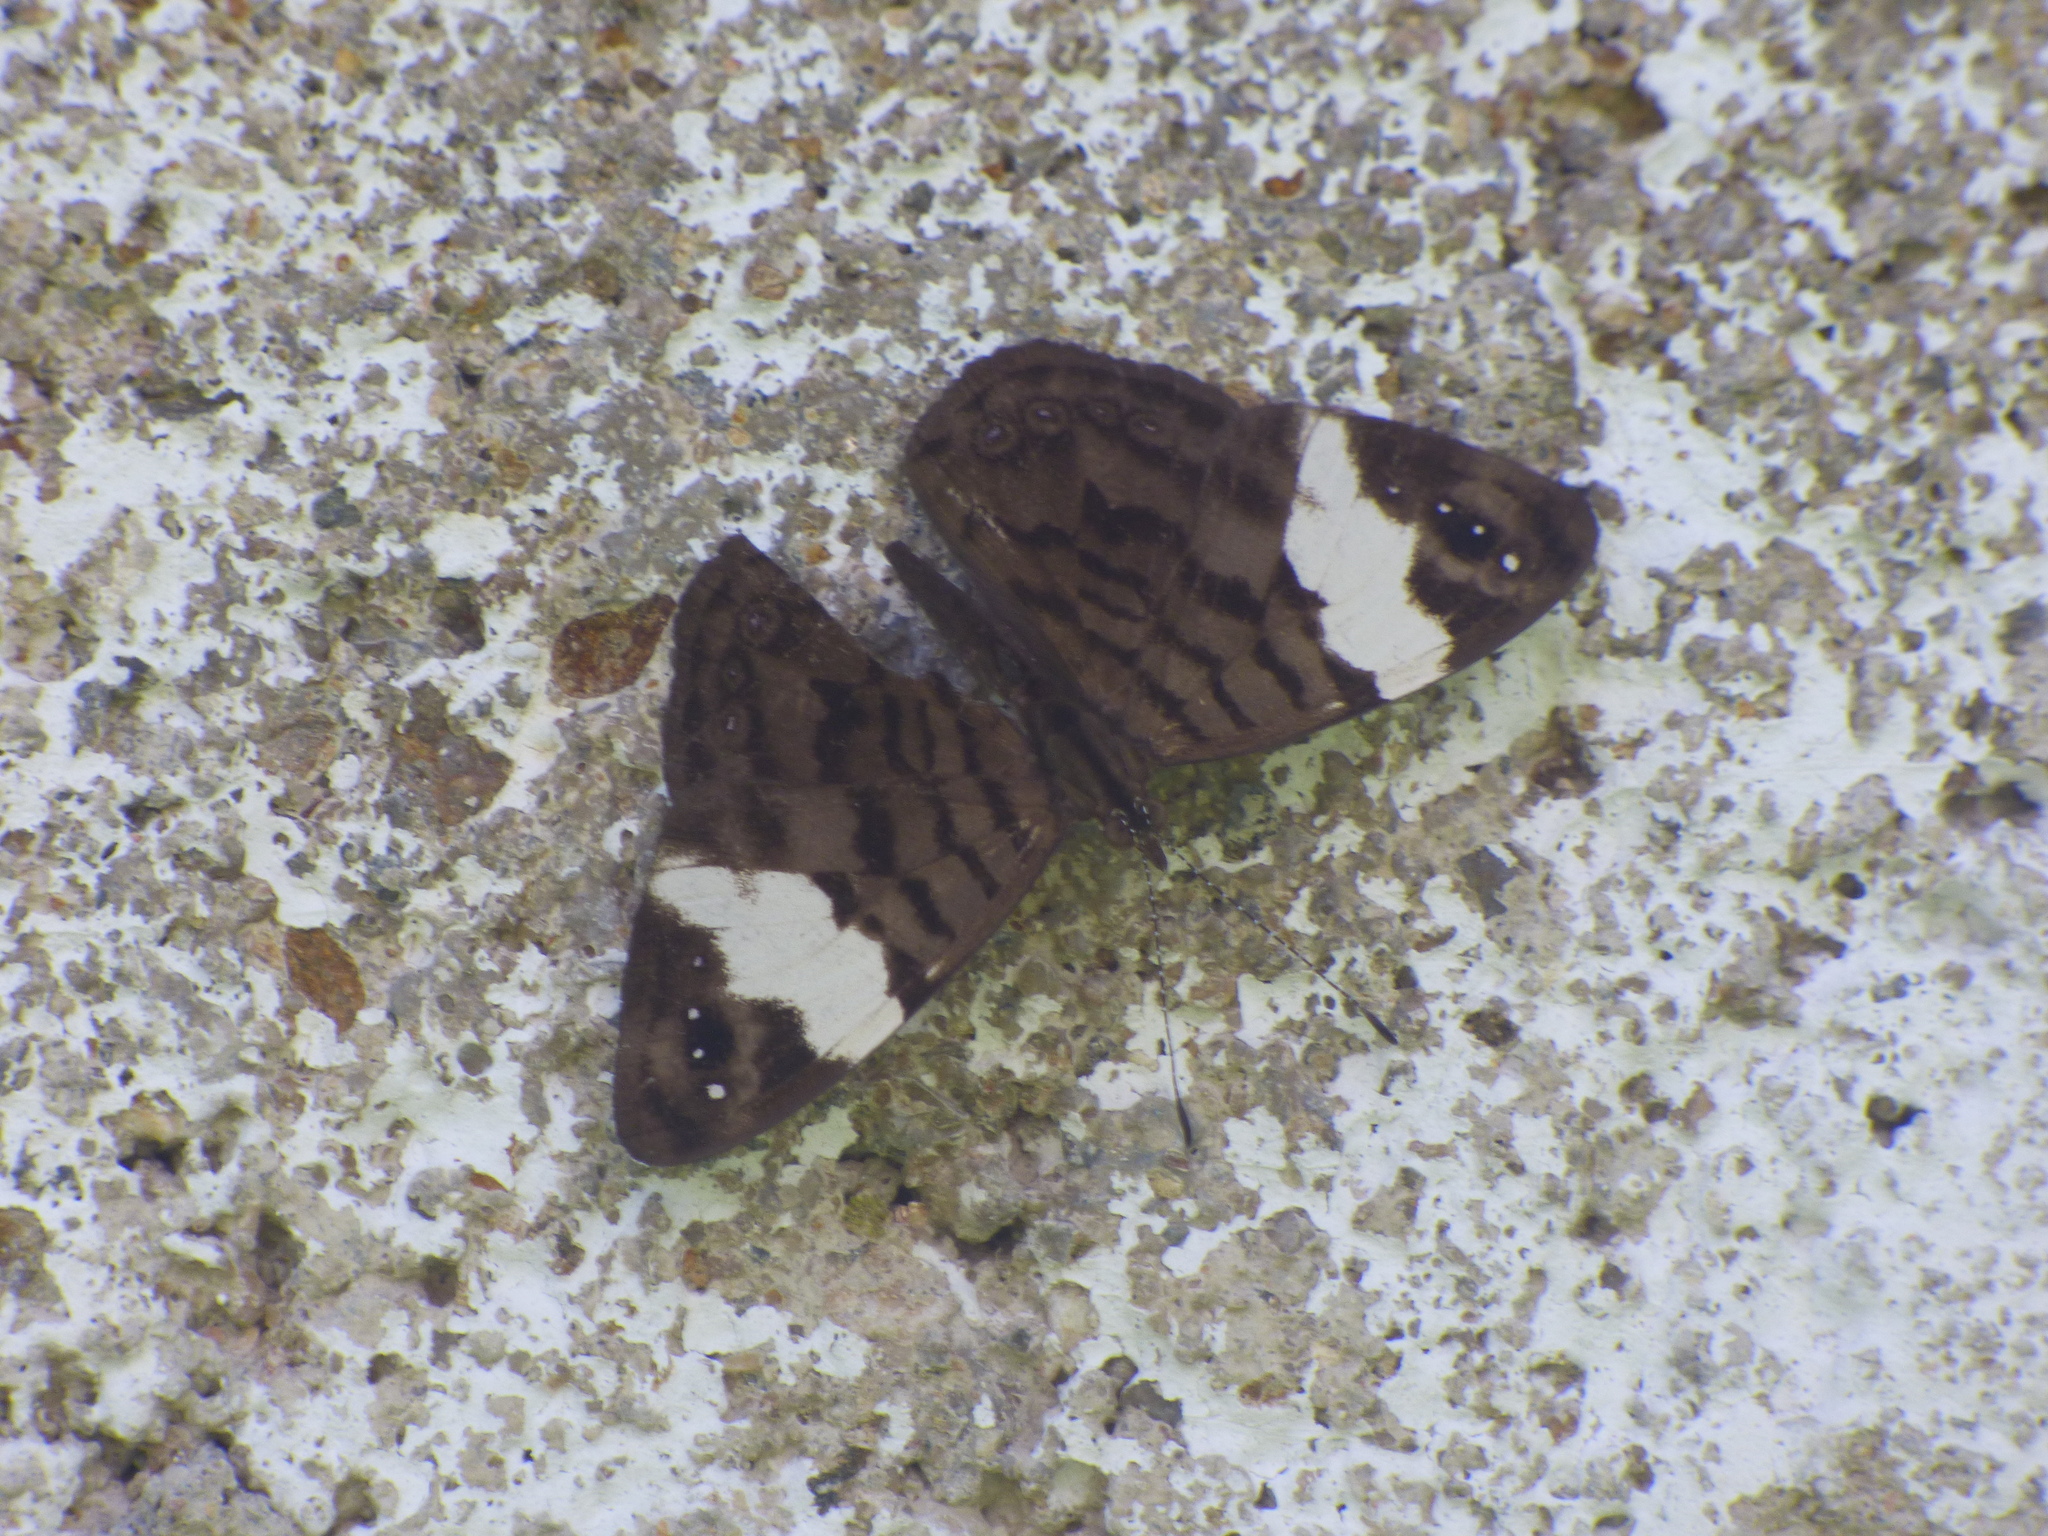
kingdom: Animalia
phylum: Arthropoda
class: Insecta
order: Lepidoptera
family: Nymphalidae
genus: Ectima
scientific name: Ectima thecla
